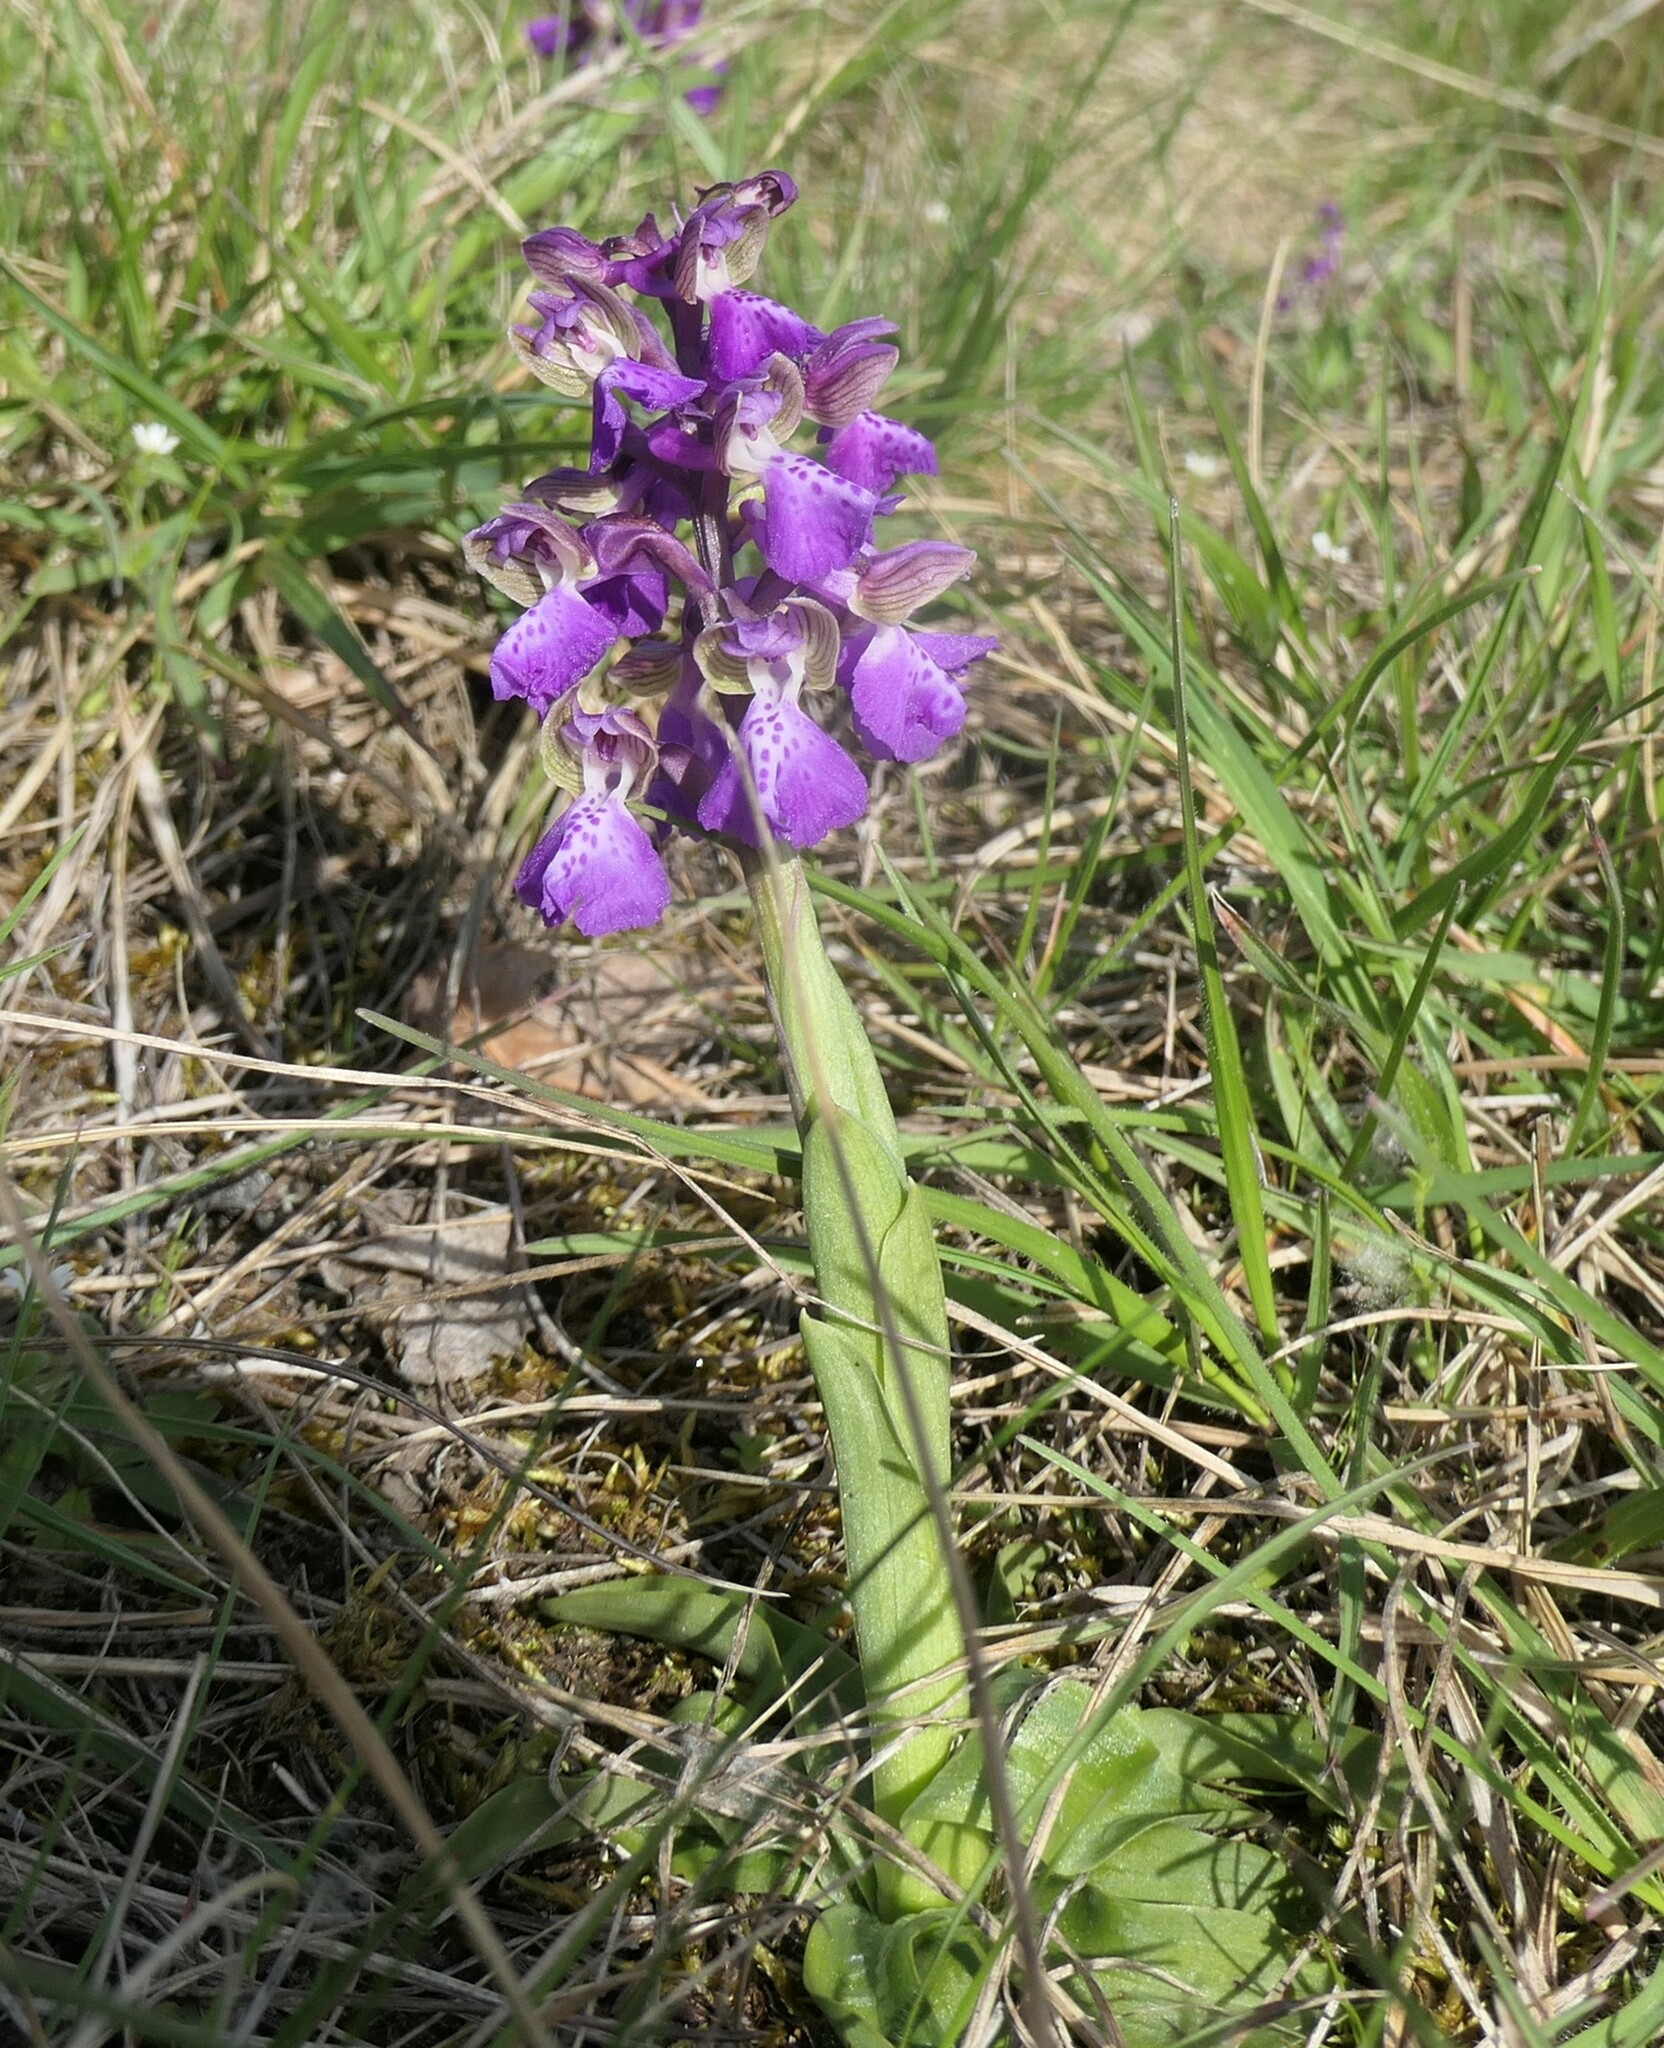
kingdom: Plantae
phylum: Tracheophyta
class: Liliopsida
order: Asparagales
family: Orchidaceae
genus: Anacamptis
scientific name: Anacamptis morio
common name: Green-winged orchid
